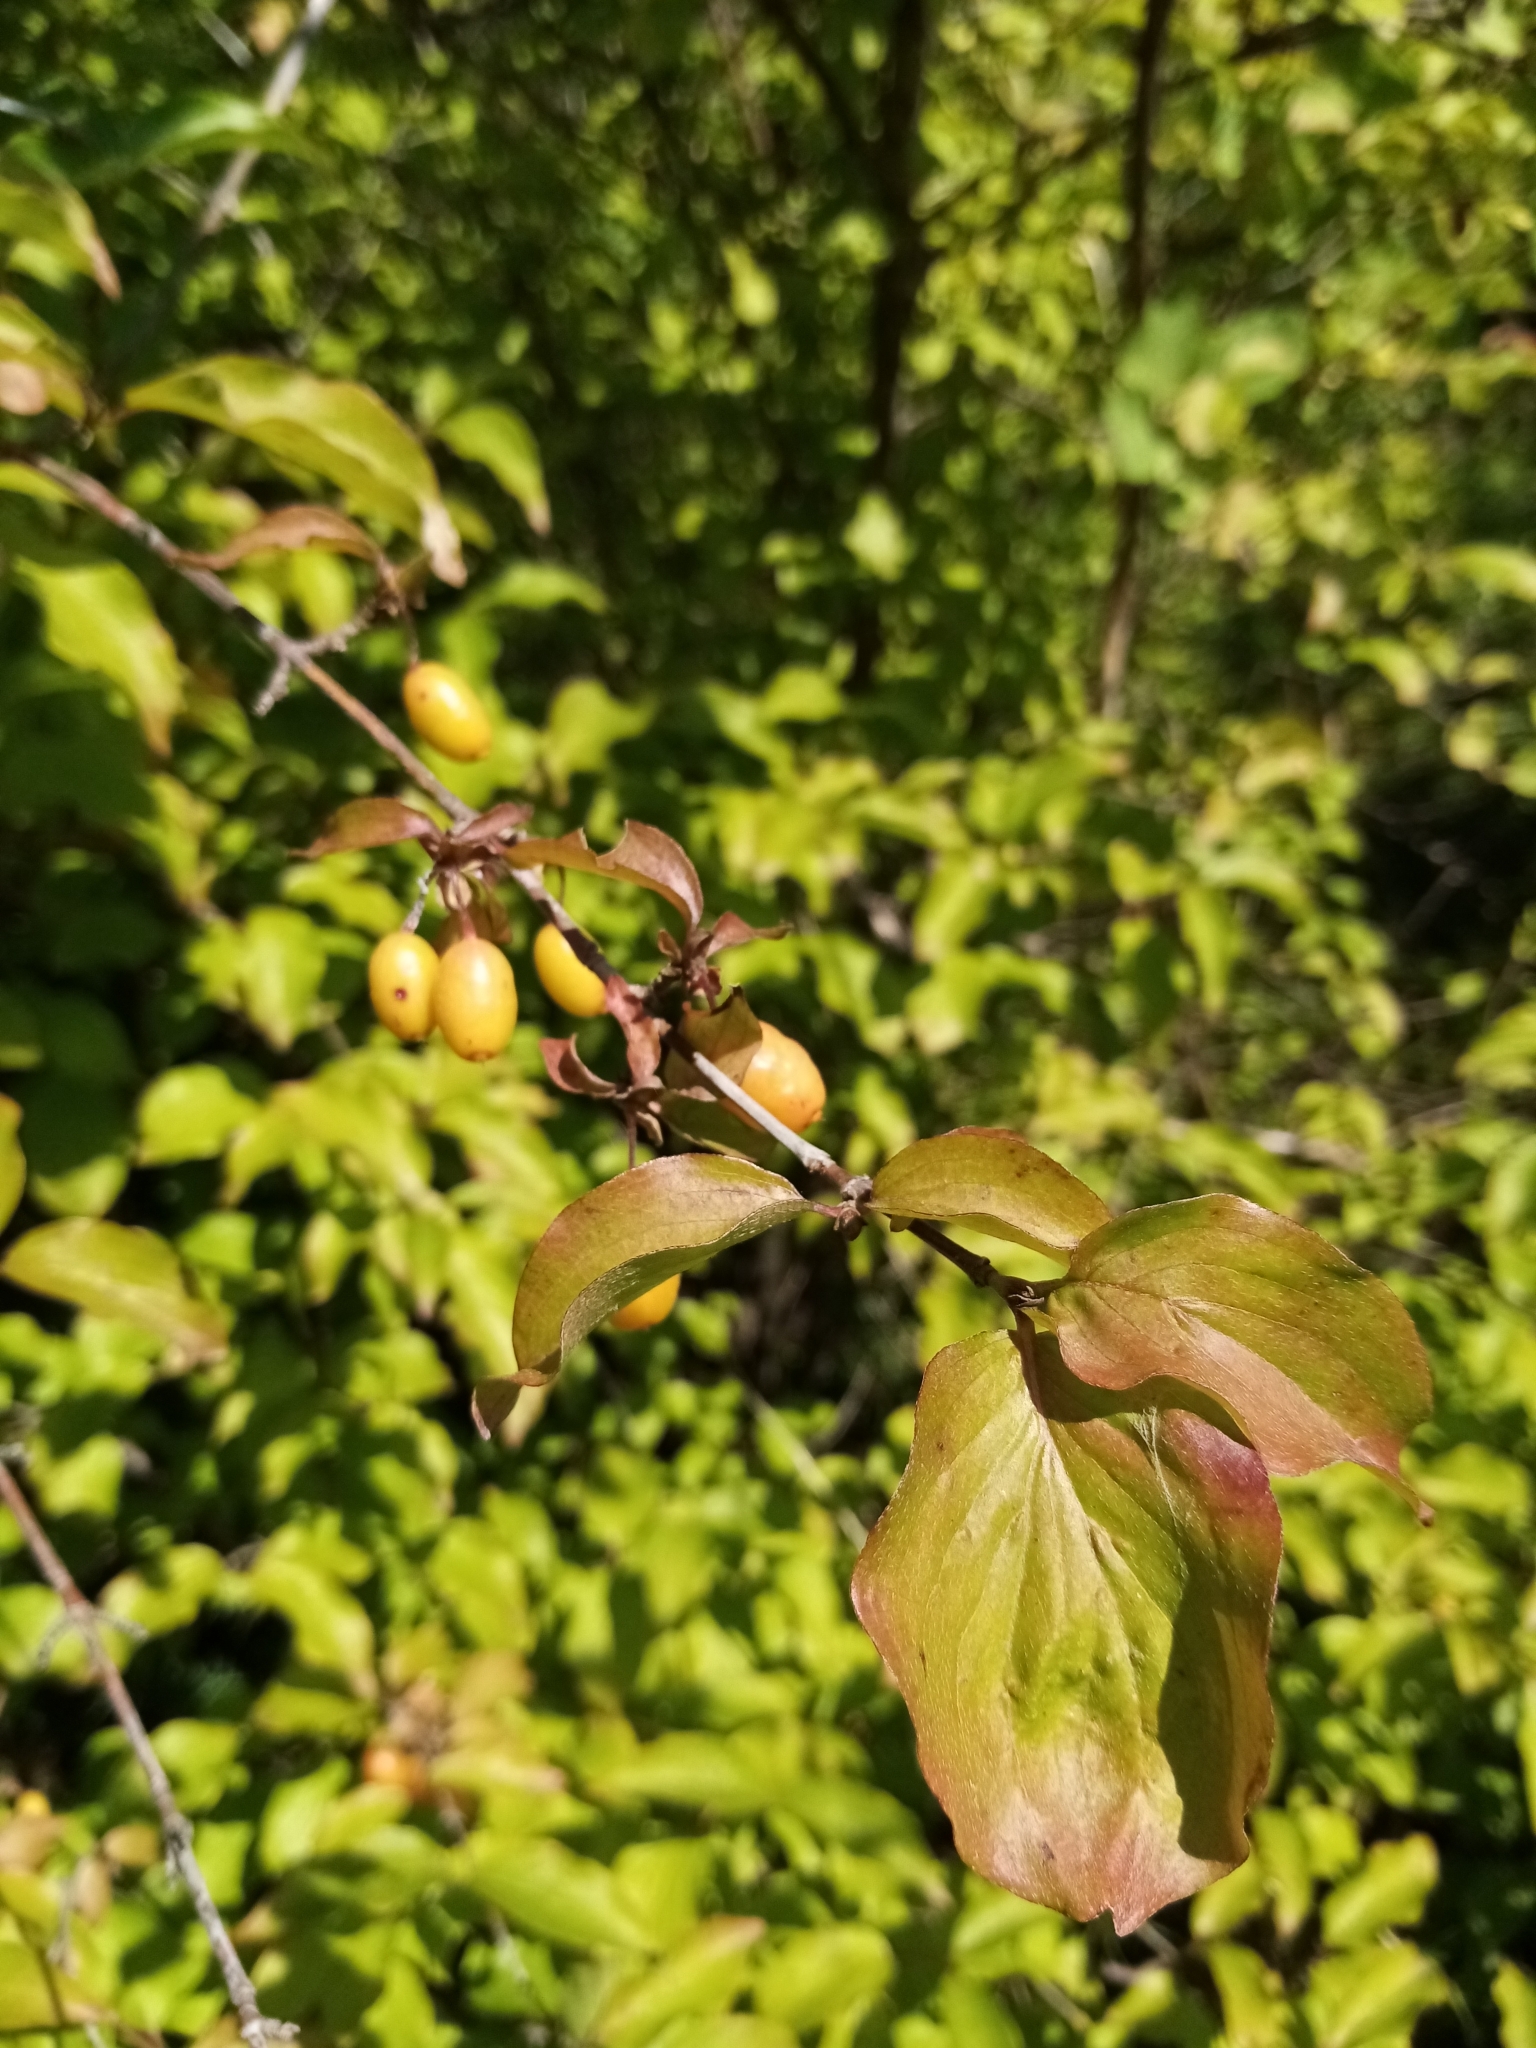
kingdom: Plantae
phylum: Tracheophyta
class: Magnoliopsida
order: Cornales
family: Cornaceae
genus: Cornus
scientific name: Cornus mas
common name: Cornelian-cherry
